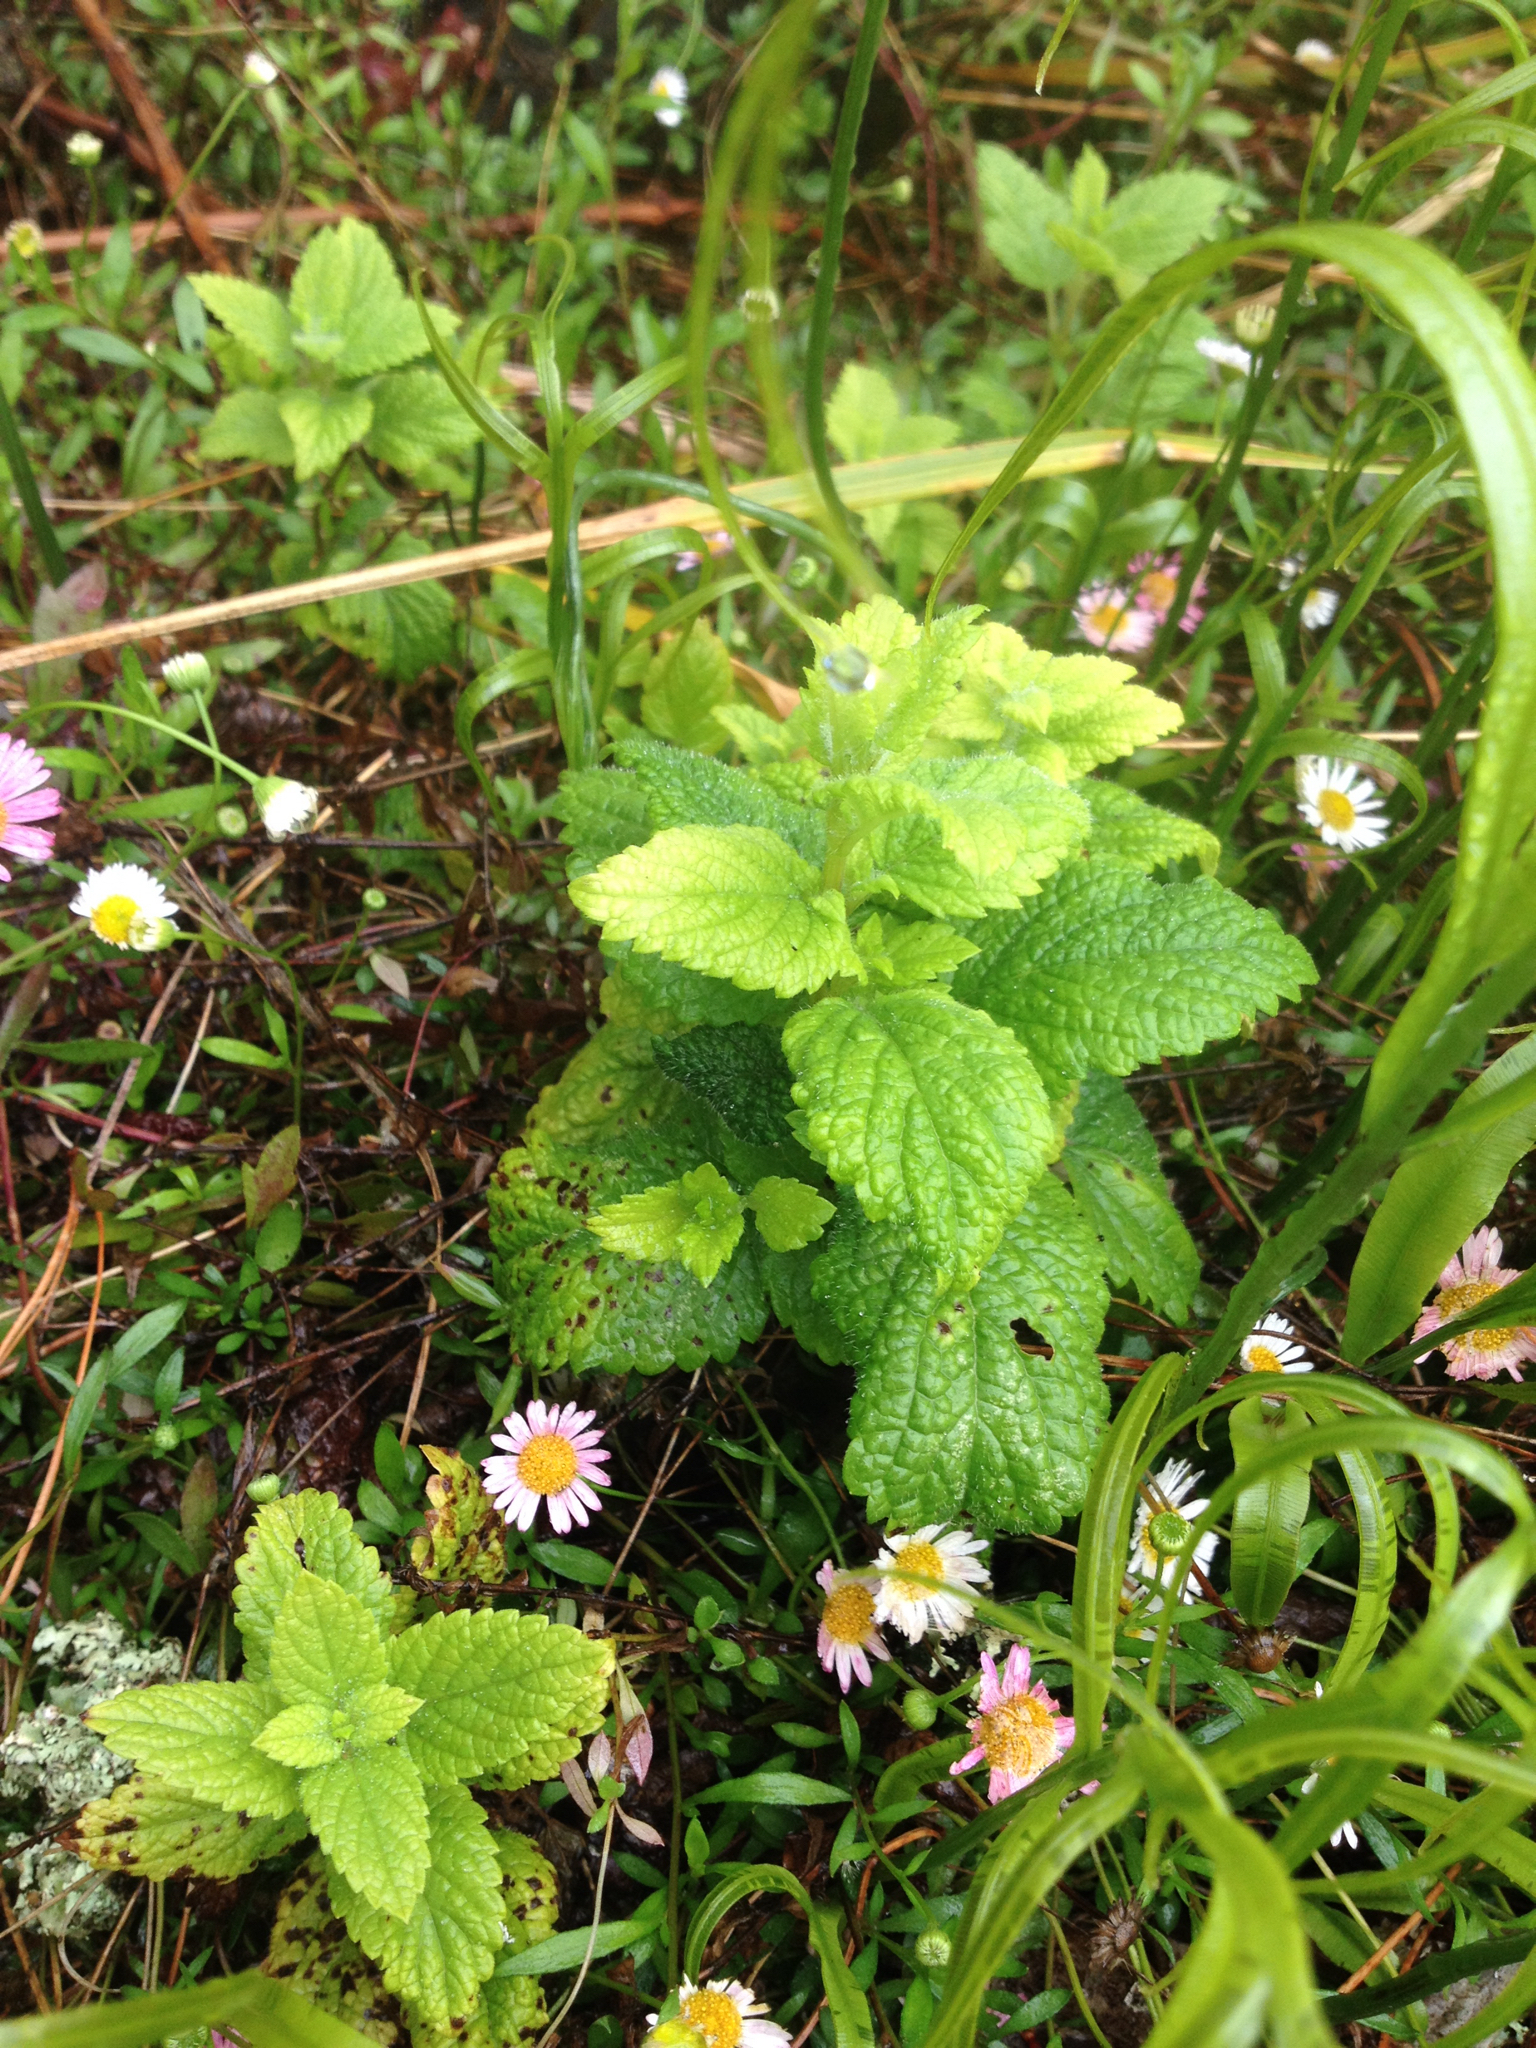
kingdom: Plantae
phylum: Tracheophyta
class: Magnoliopsida
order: Lamiales
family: Lamiaceae
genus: Mentha
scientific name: Mentha rotundifolia
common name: Bigleaf mint
